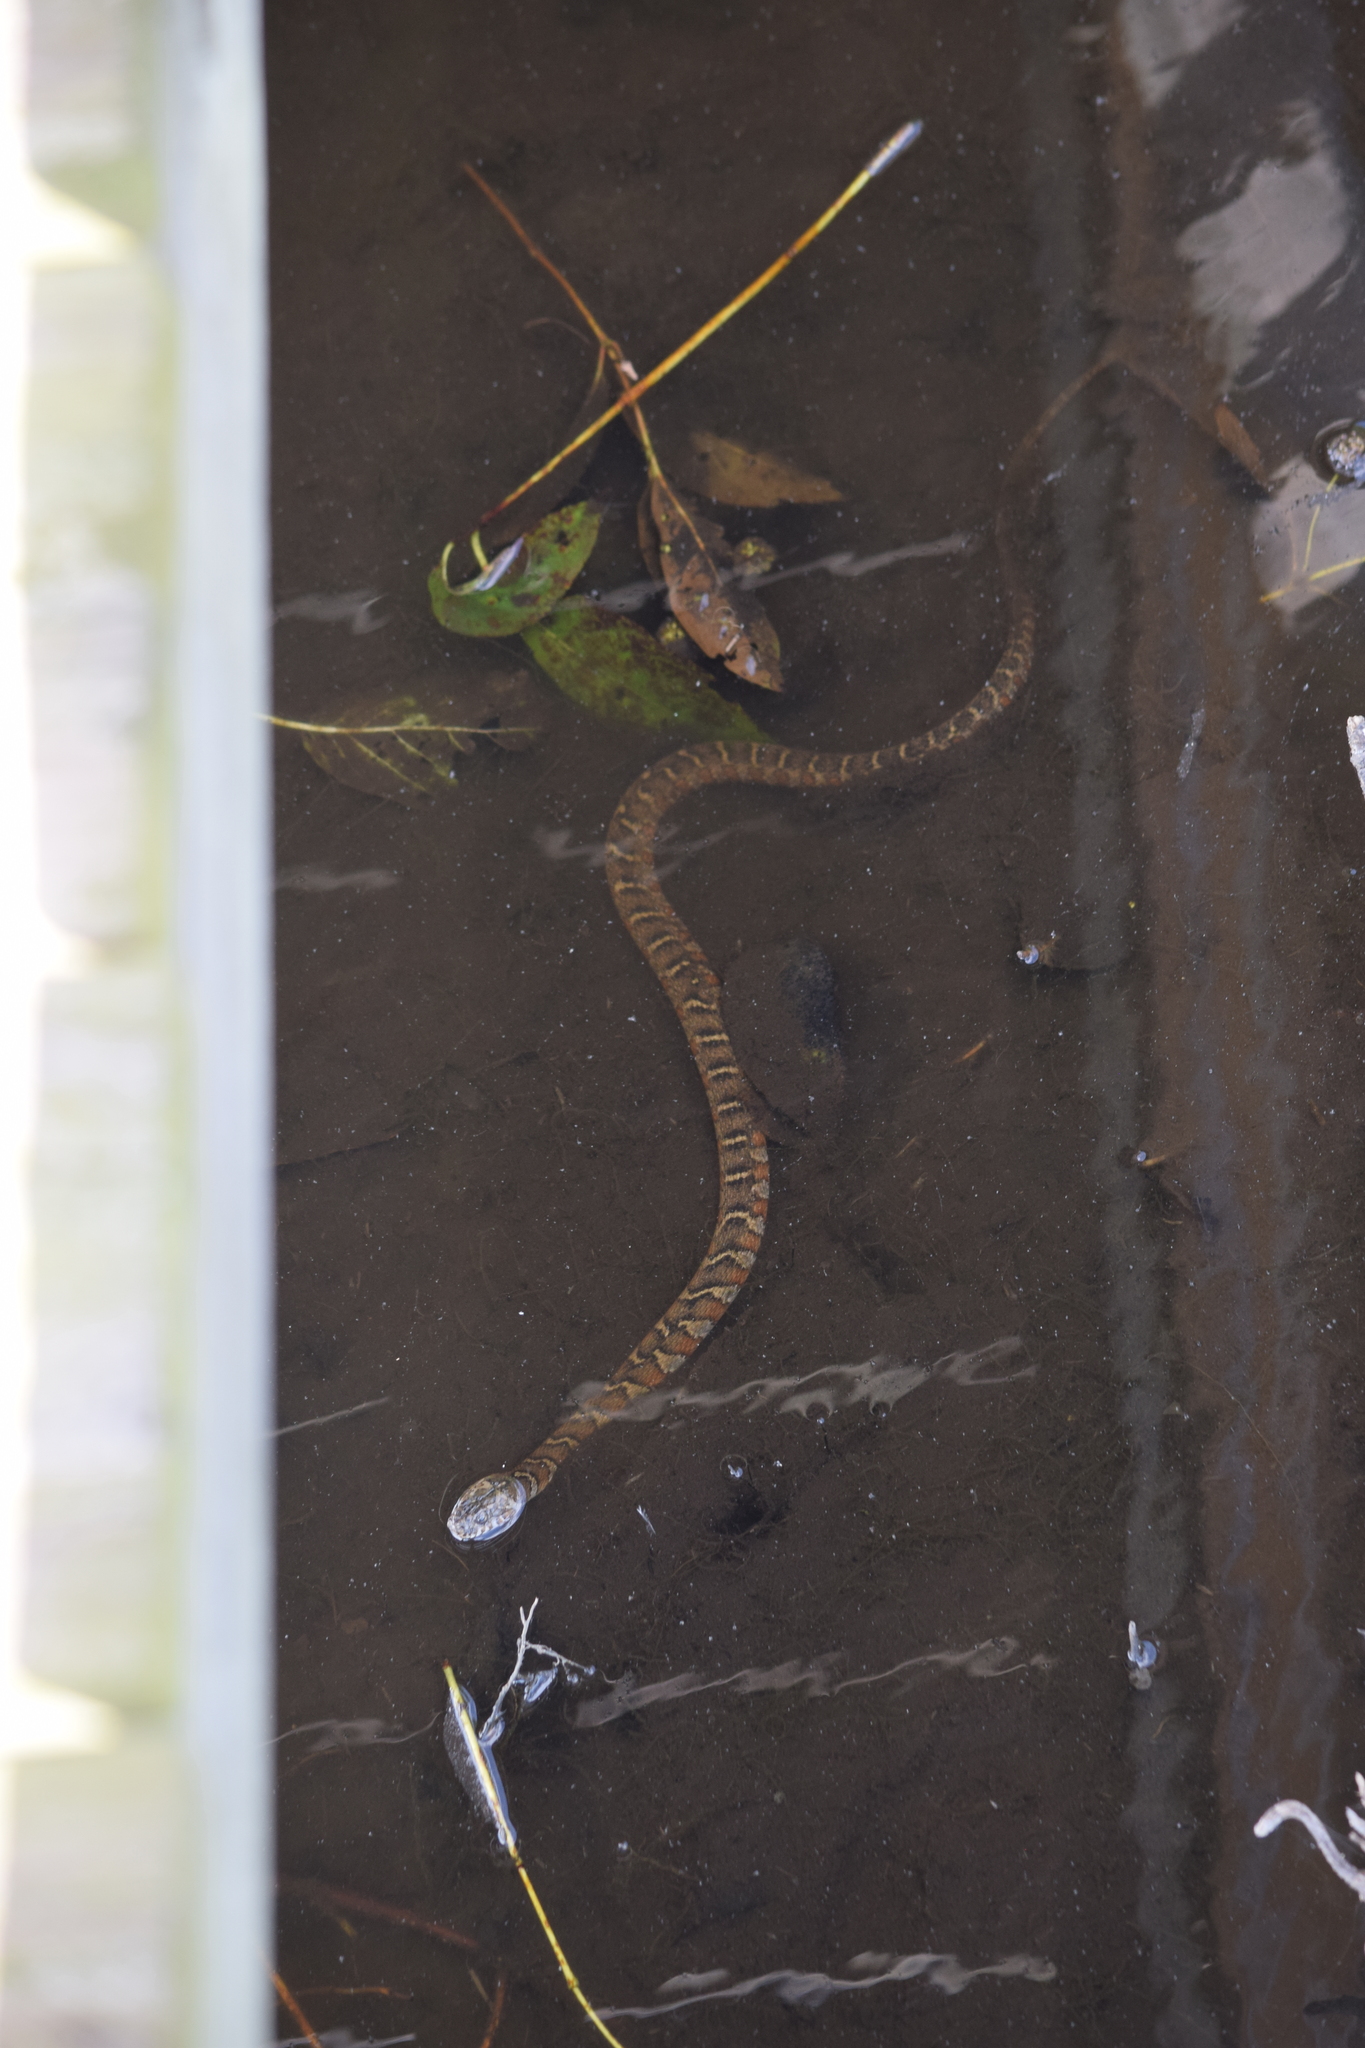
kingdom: Animalia
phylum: Chordata
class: Squamata
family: Colubridae
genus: Nerodia
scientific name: Nerodia sipedon
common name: Northern water snake
